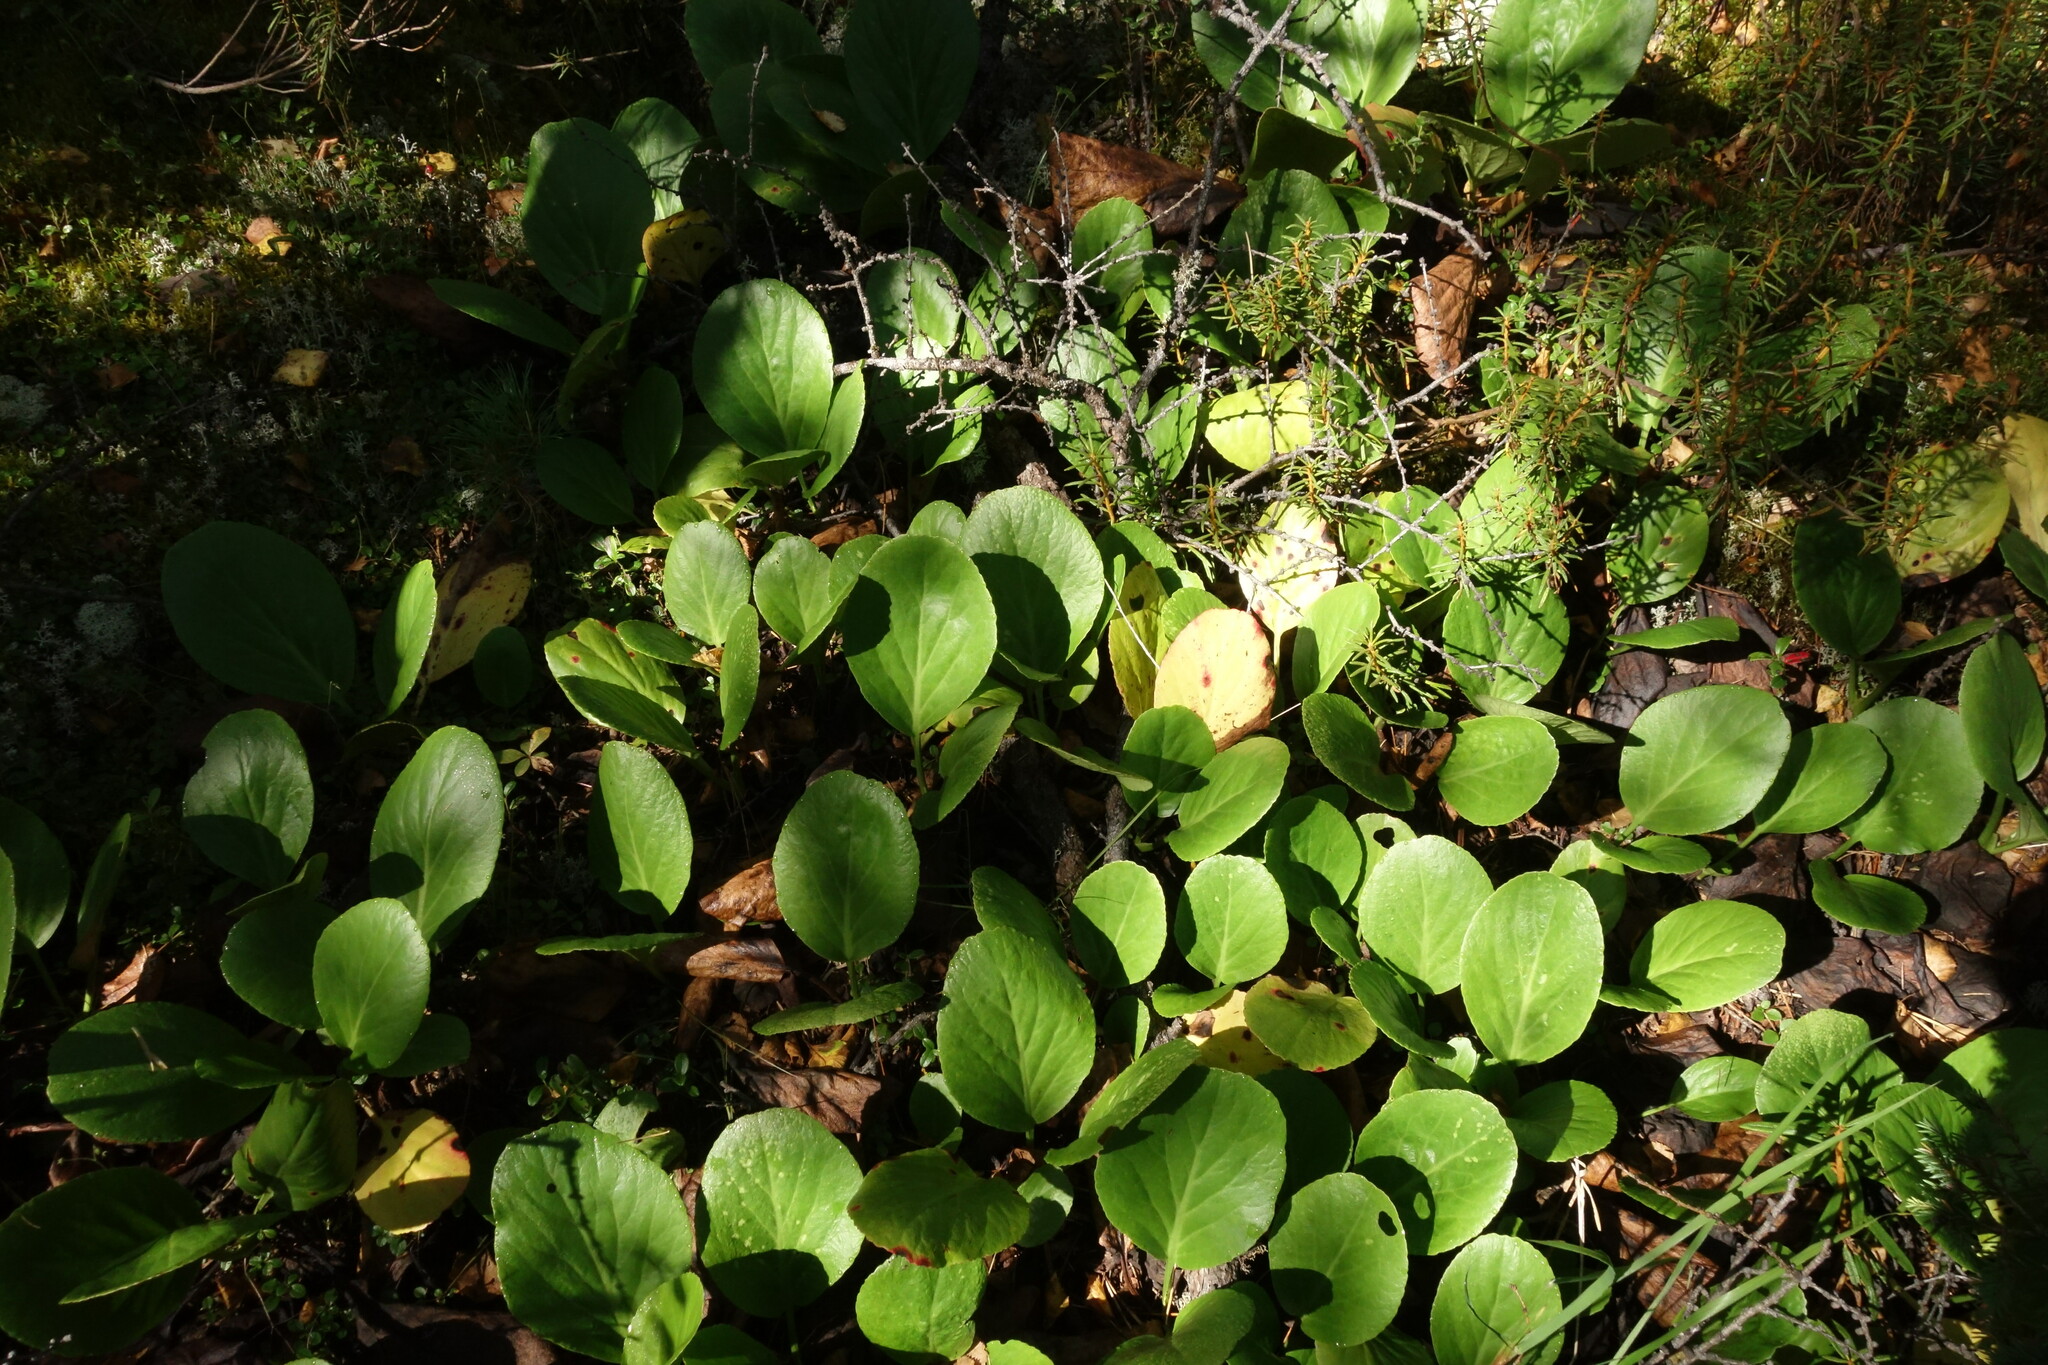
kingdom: Plantae
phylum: Tracheophyta
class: Magnoliopsida
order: Saxifragales
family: Saxifragaceae
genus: Bergenia
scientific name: Bergenia crassifolia
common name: Elephant-ears
